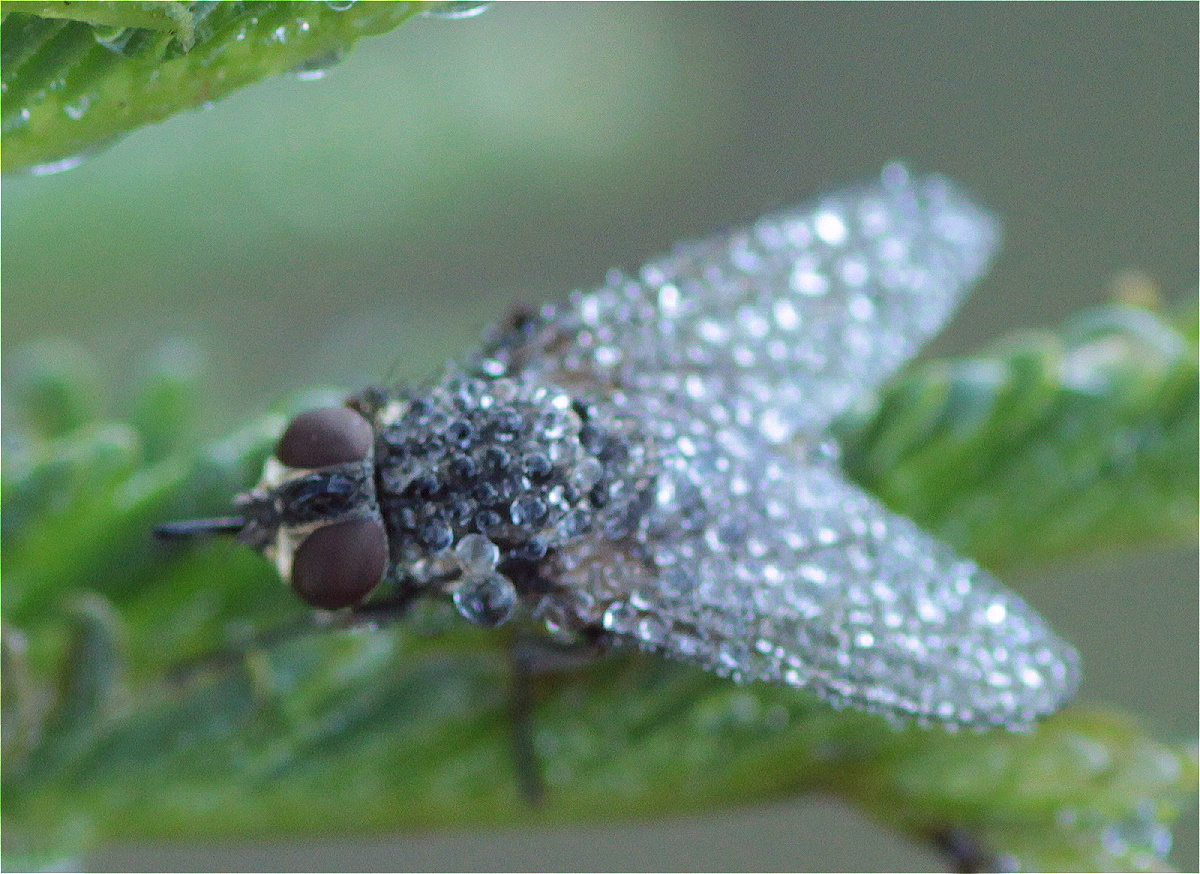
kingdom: Animalia
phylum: Arthropoda
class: Insecta
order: Diptera
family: Muscidae
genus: Stomoxys
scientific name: Stomoxys calcitrans
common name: Stable fly
